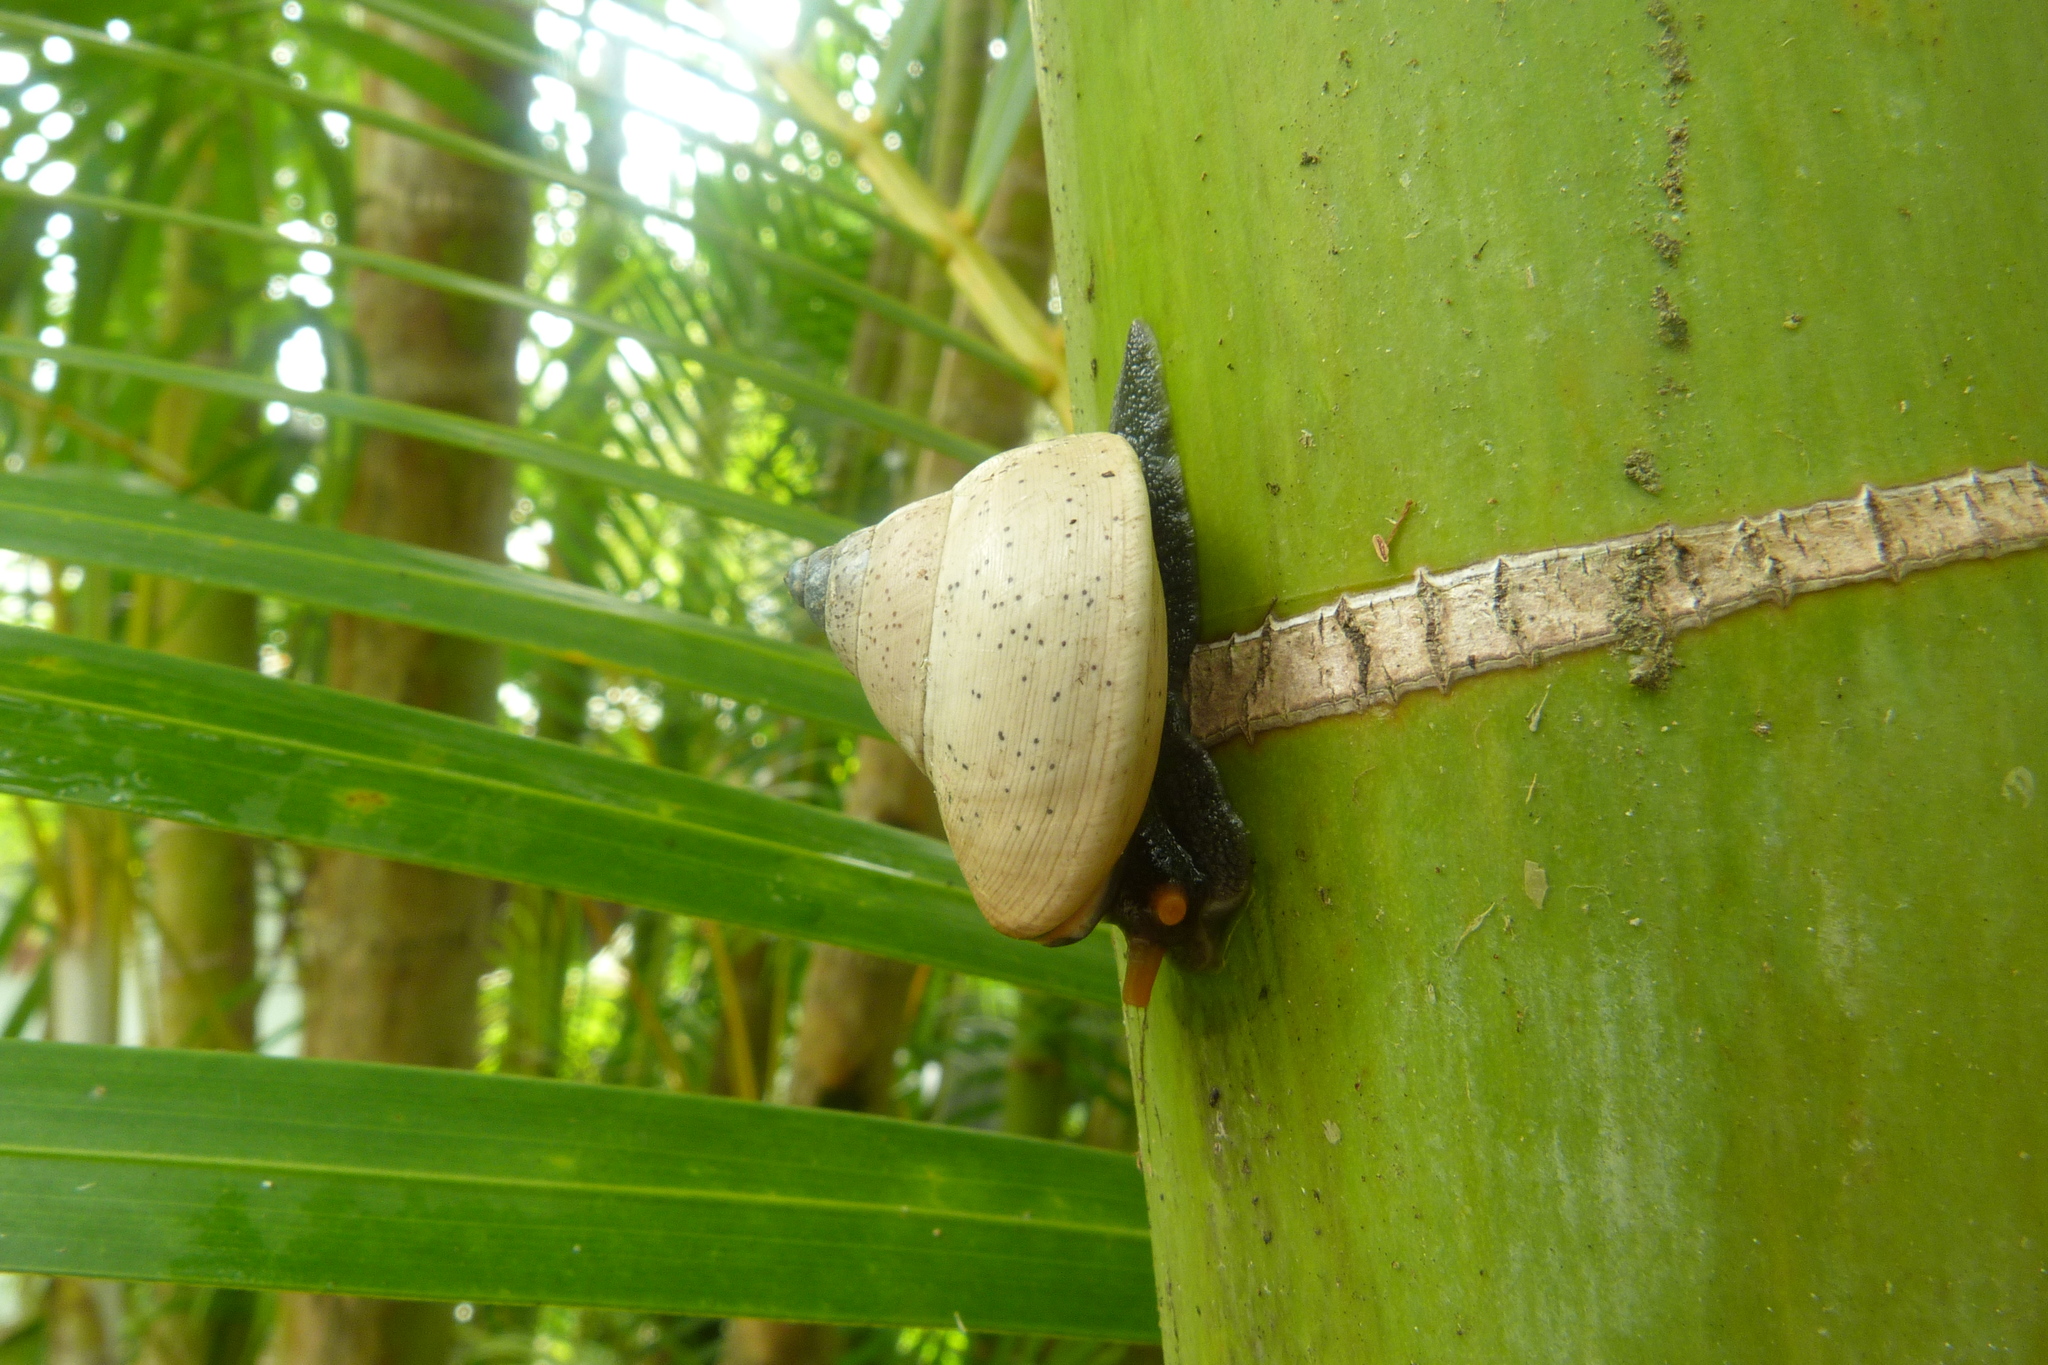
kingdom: Animalia
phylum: Mollusca
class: Gastropoda
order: Stylommatophora
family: Camaenidae
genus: Rhynchotrochus
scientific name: Rhynchotrochus macgillivrayi
